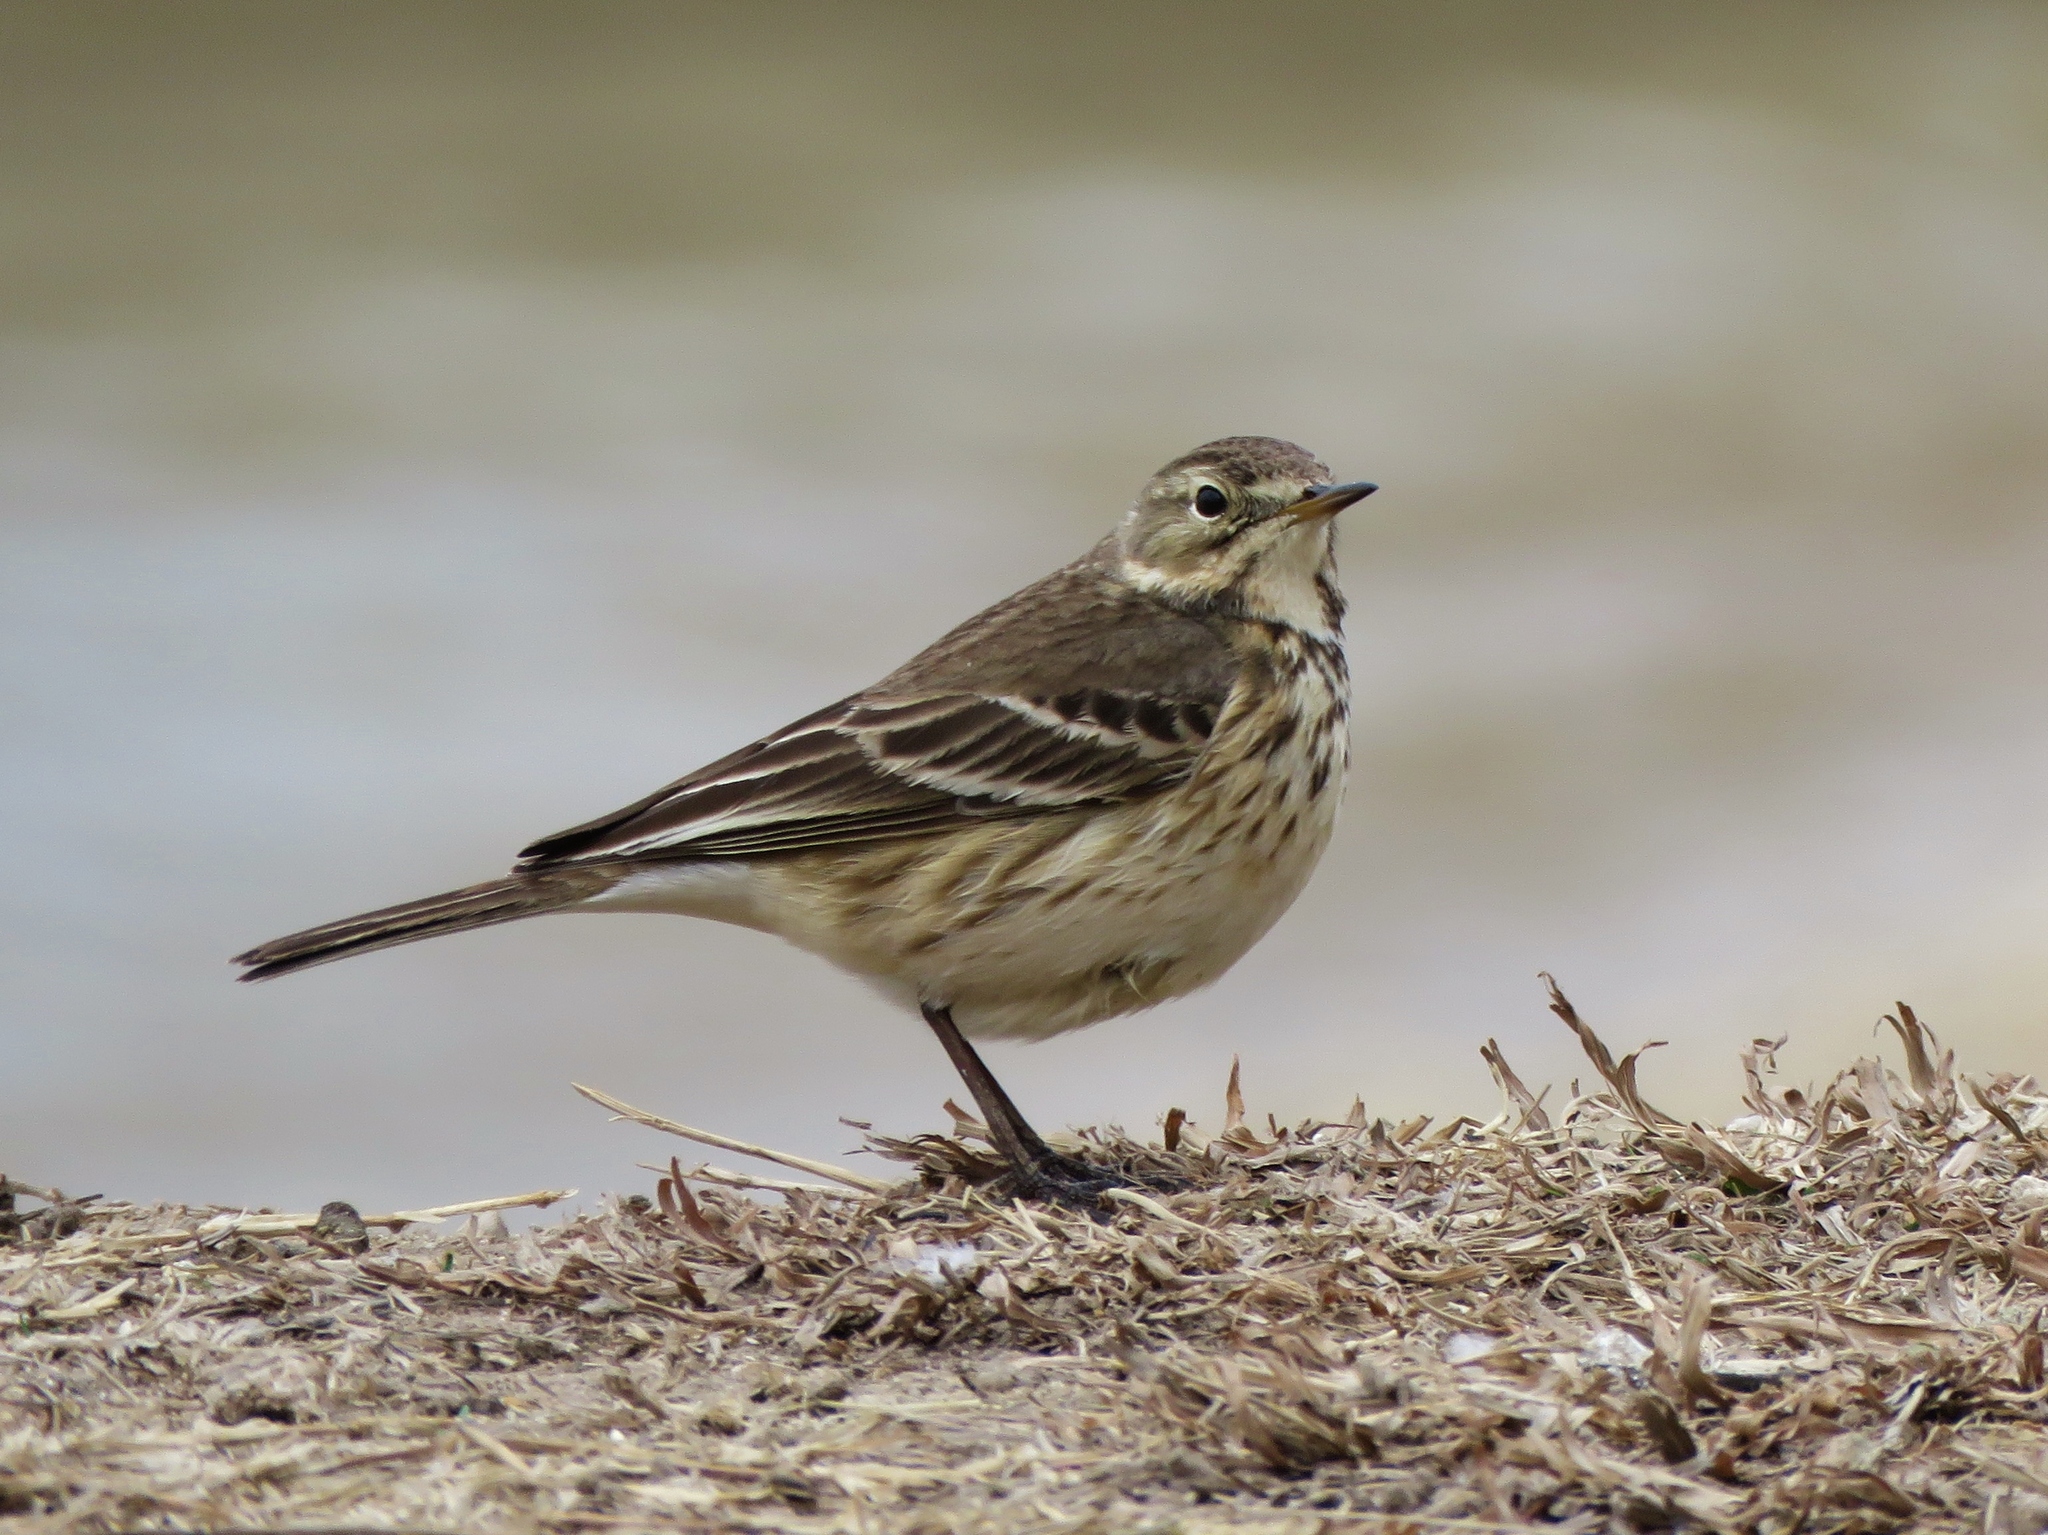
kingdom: Animalia
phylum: Chordata
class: Aves
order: Passeriformes
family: Motacillidae
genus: Anthus
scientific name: Anthus rubescens
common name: Buff-bellied pipit
